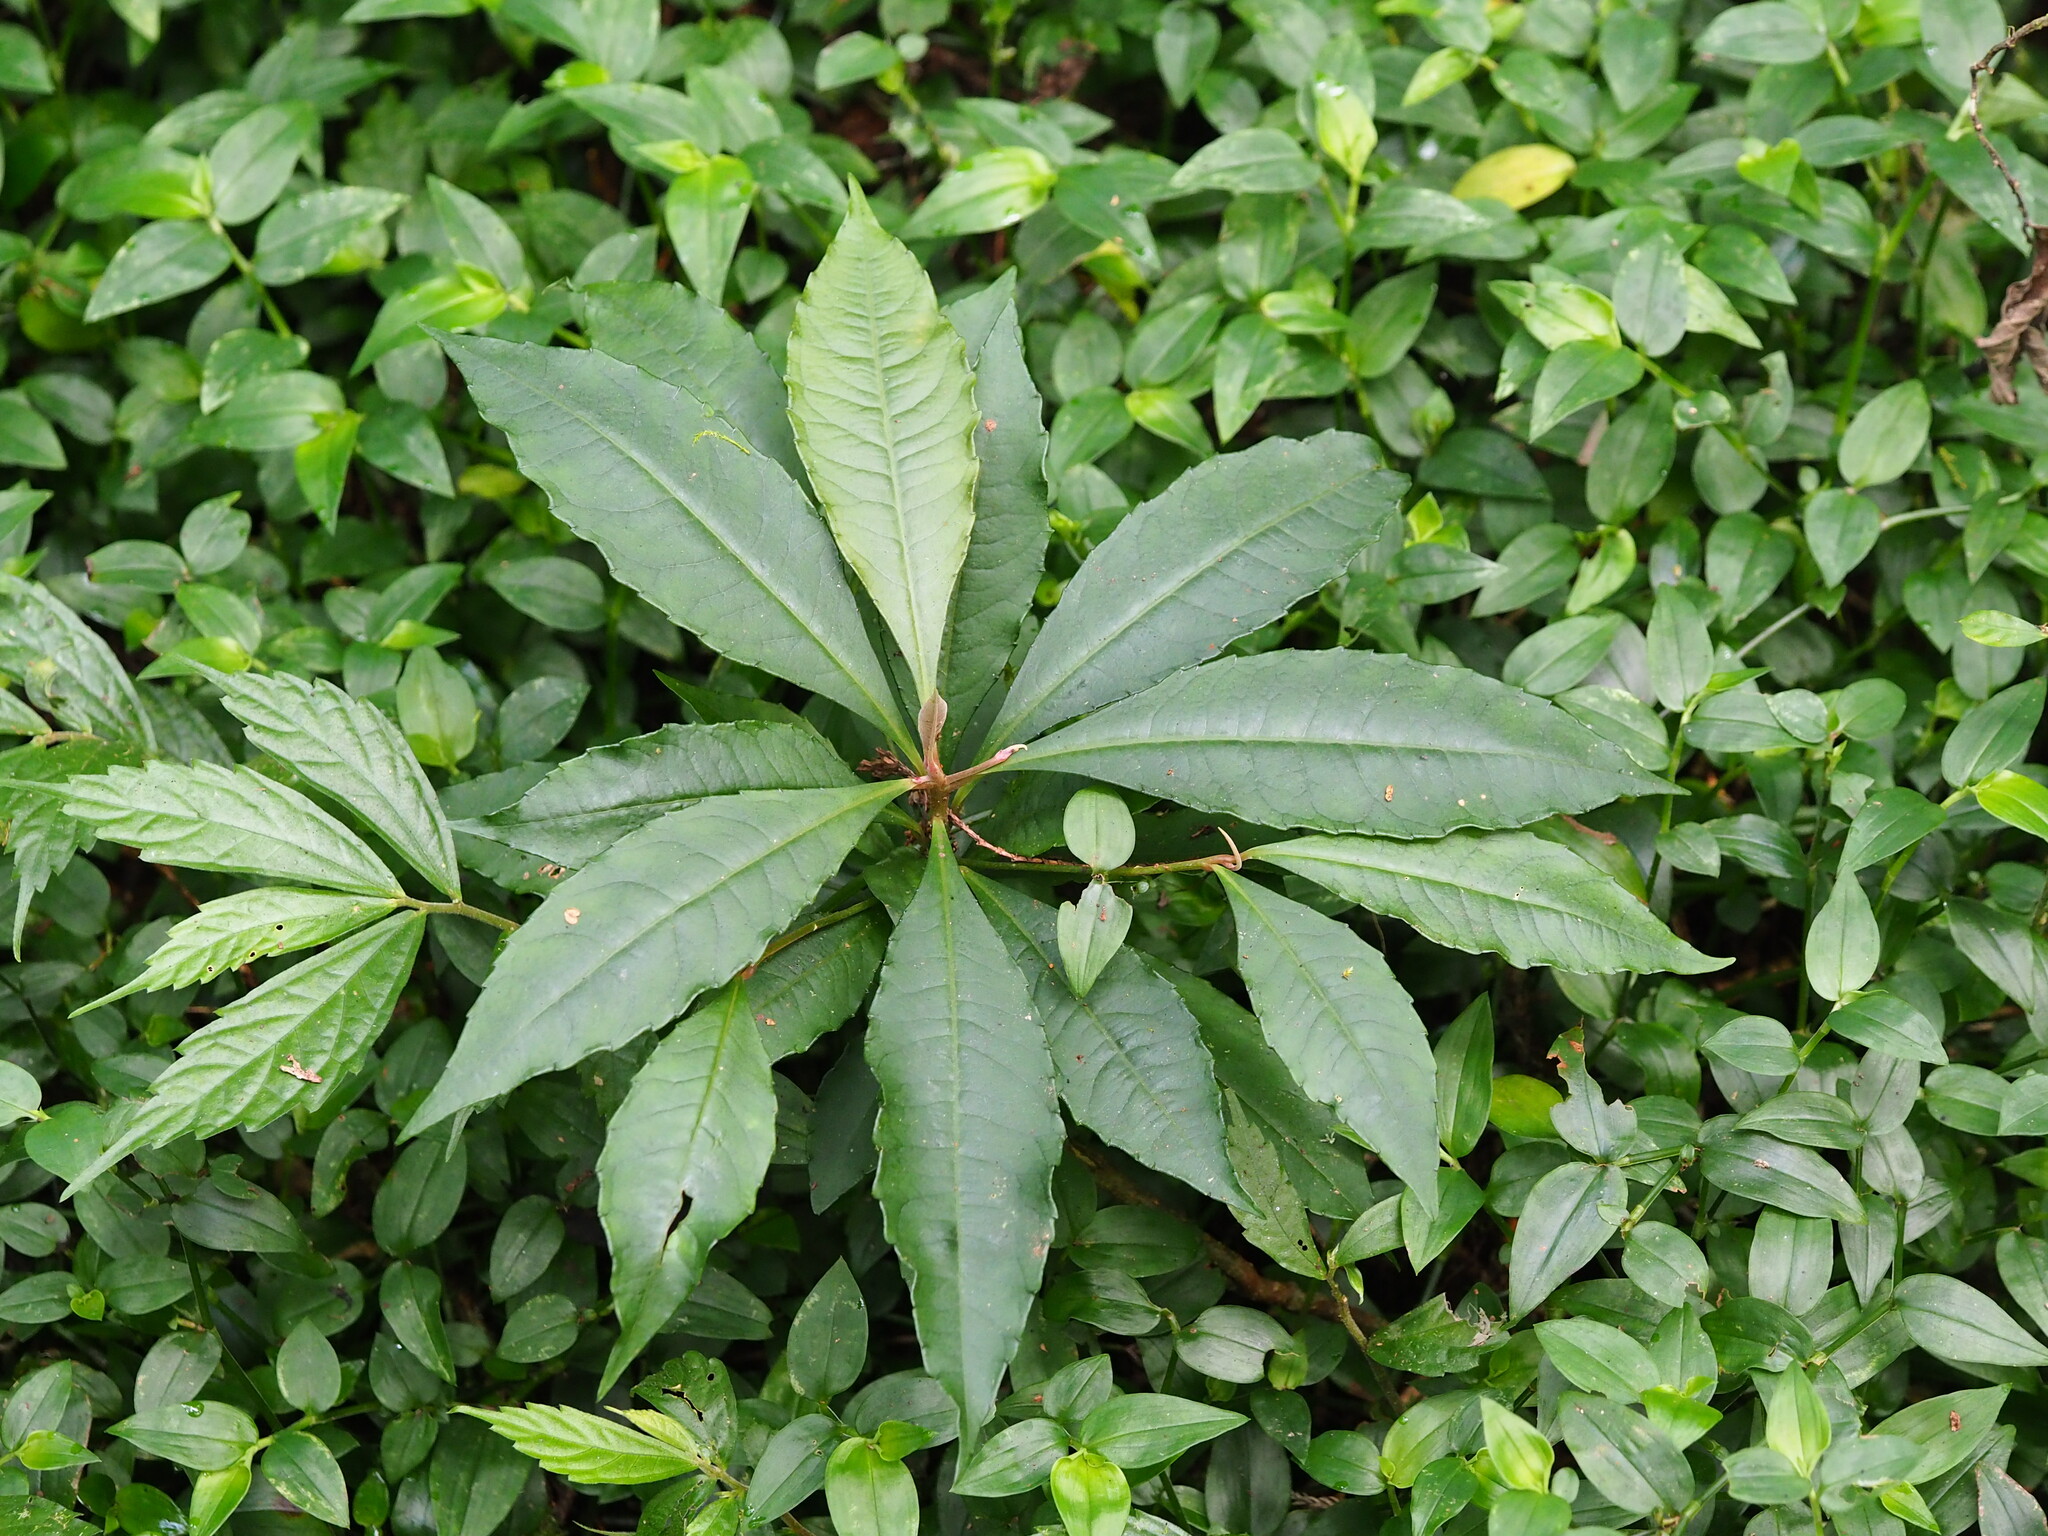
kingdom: Plantae
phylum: Tracheophyta
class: Magnoliopsida
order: Ericales
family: Primulaceae
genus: Ardisia
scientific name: Ardisia crenata
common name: Hen's eyes
